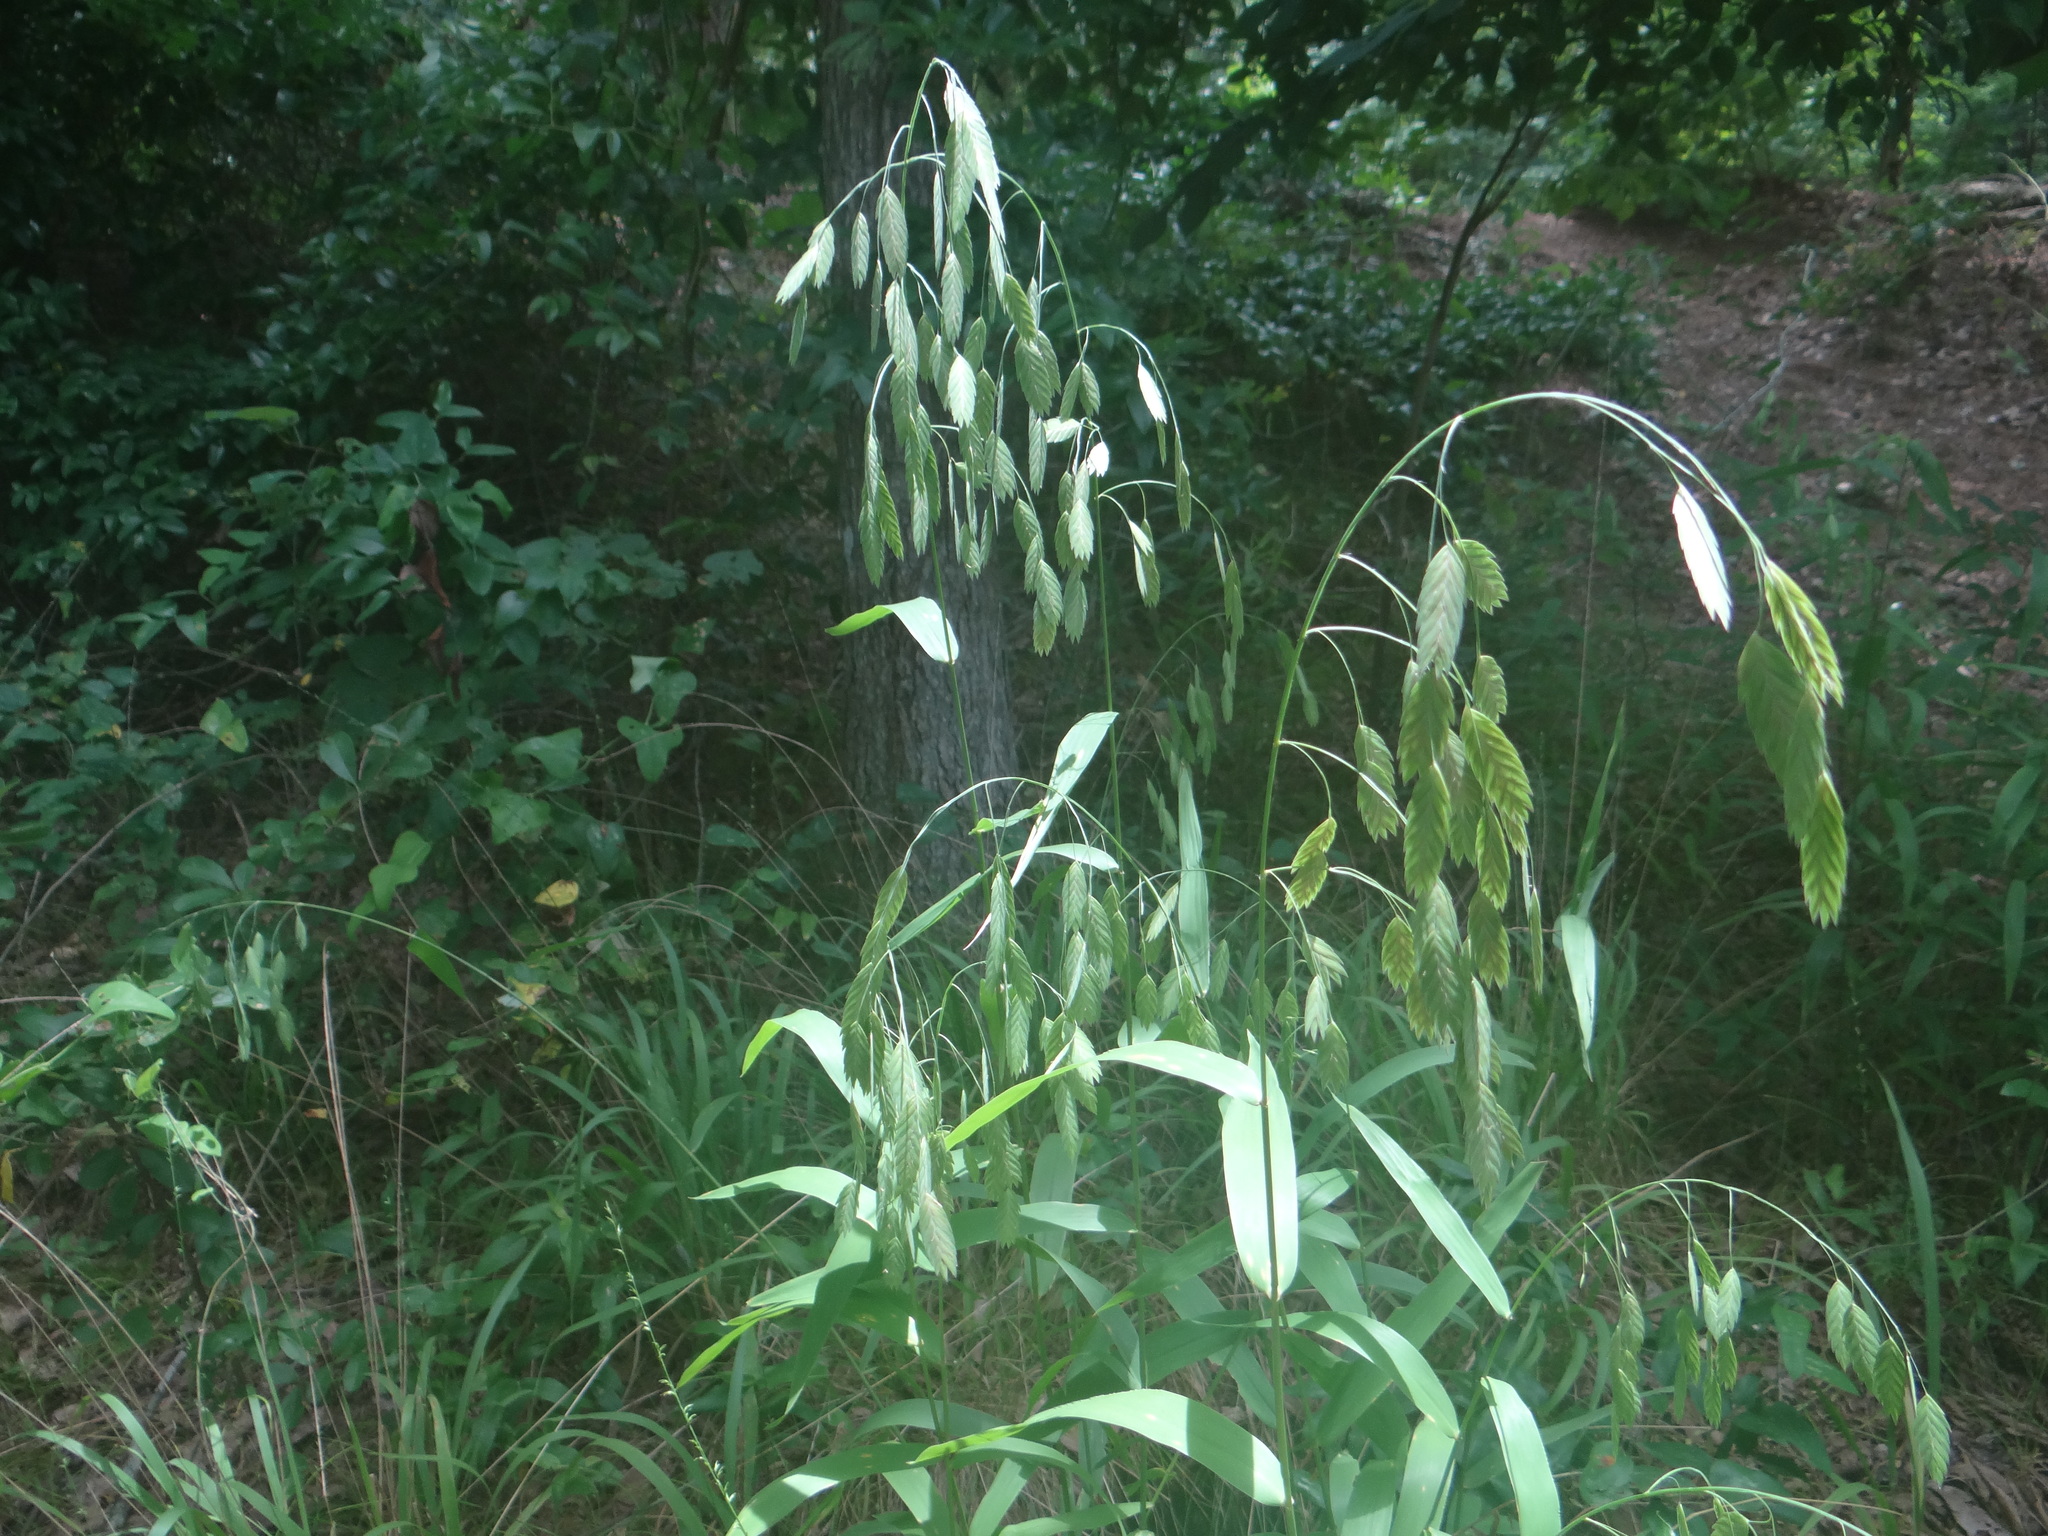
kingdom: Plantae
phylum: Tracheophyta
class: Liliopsida
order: Poales
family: Poaceae
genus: Chasmanthium
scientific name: Chasmanthium latifolium
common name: Broad-leaved chasmanthium
